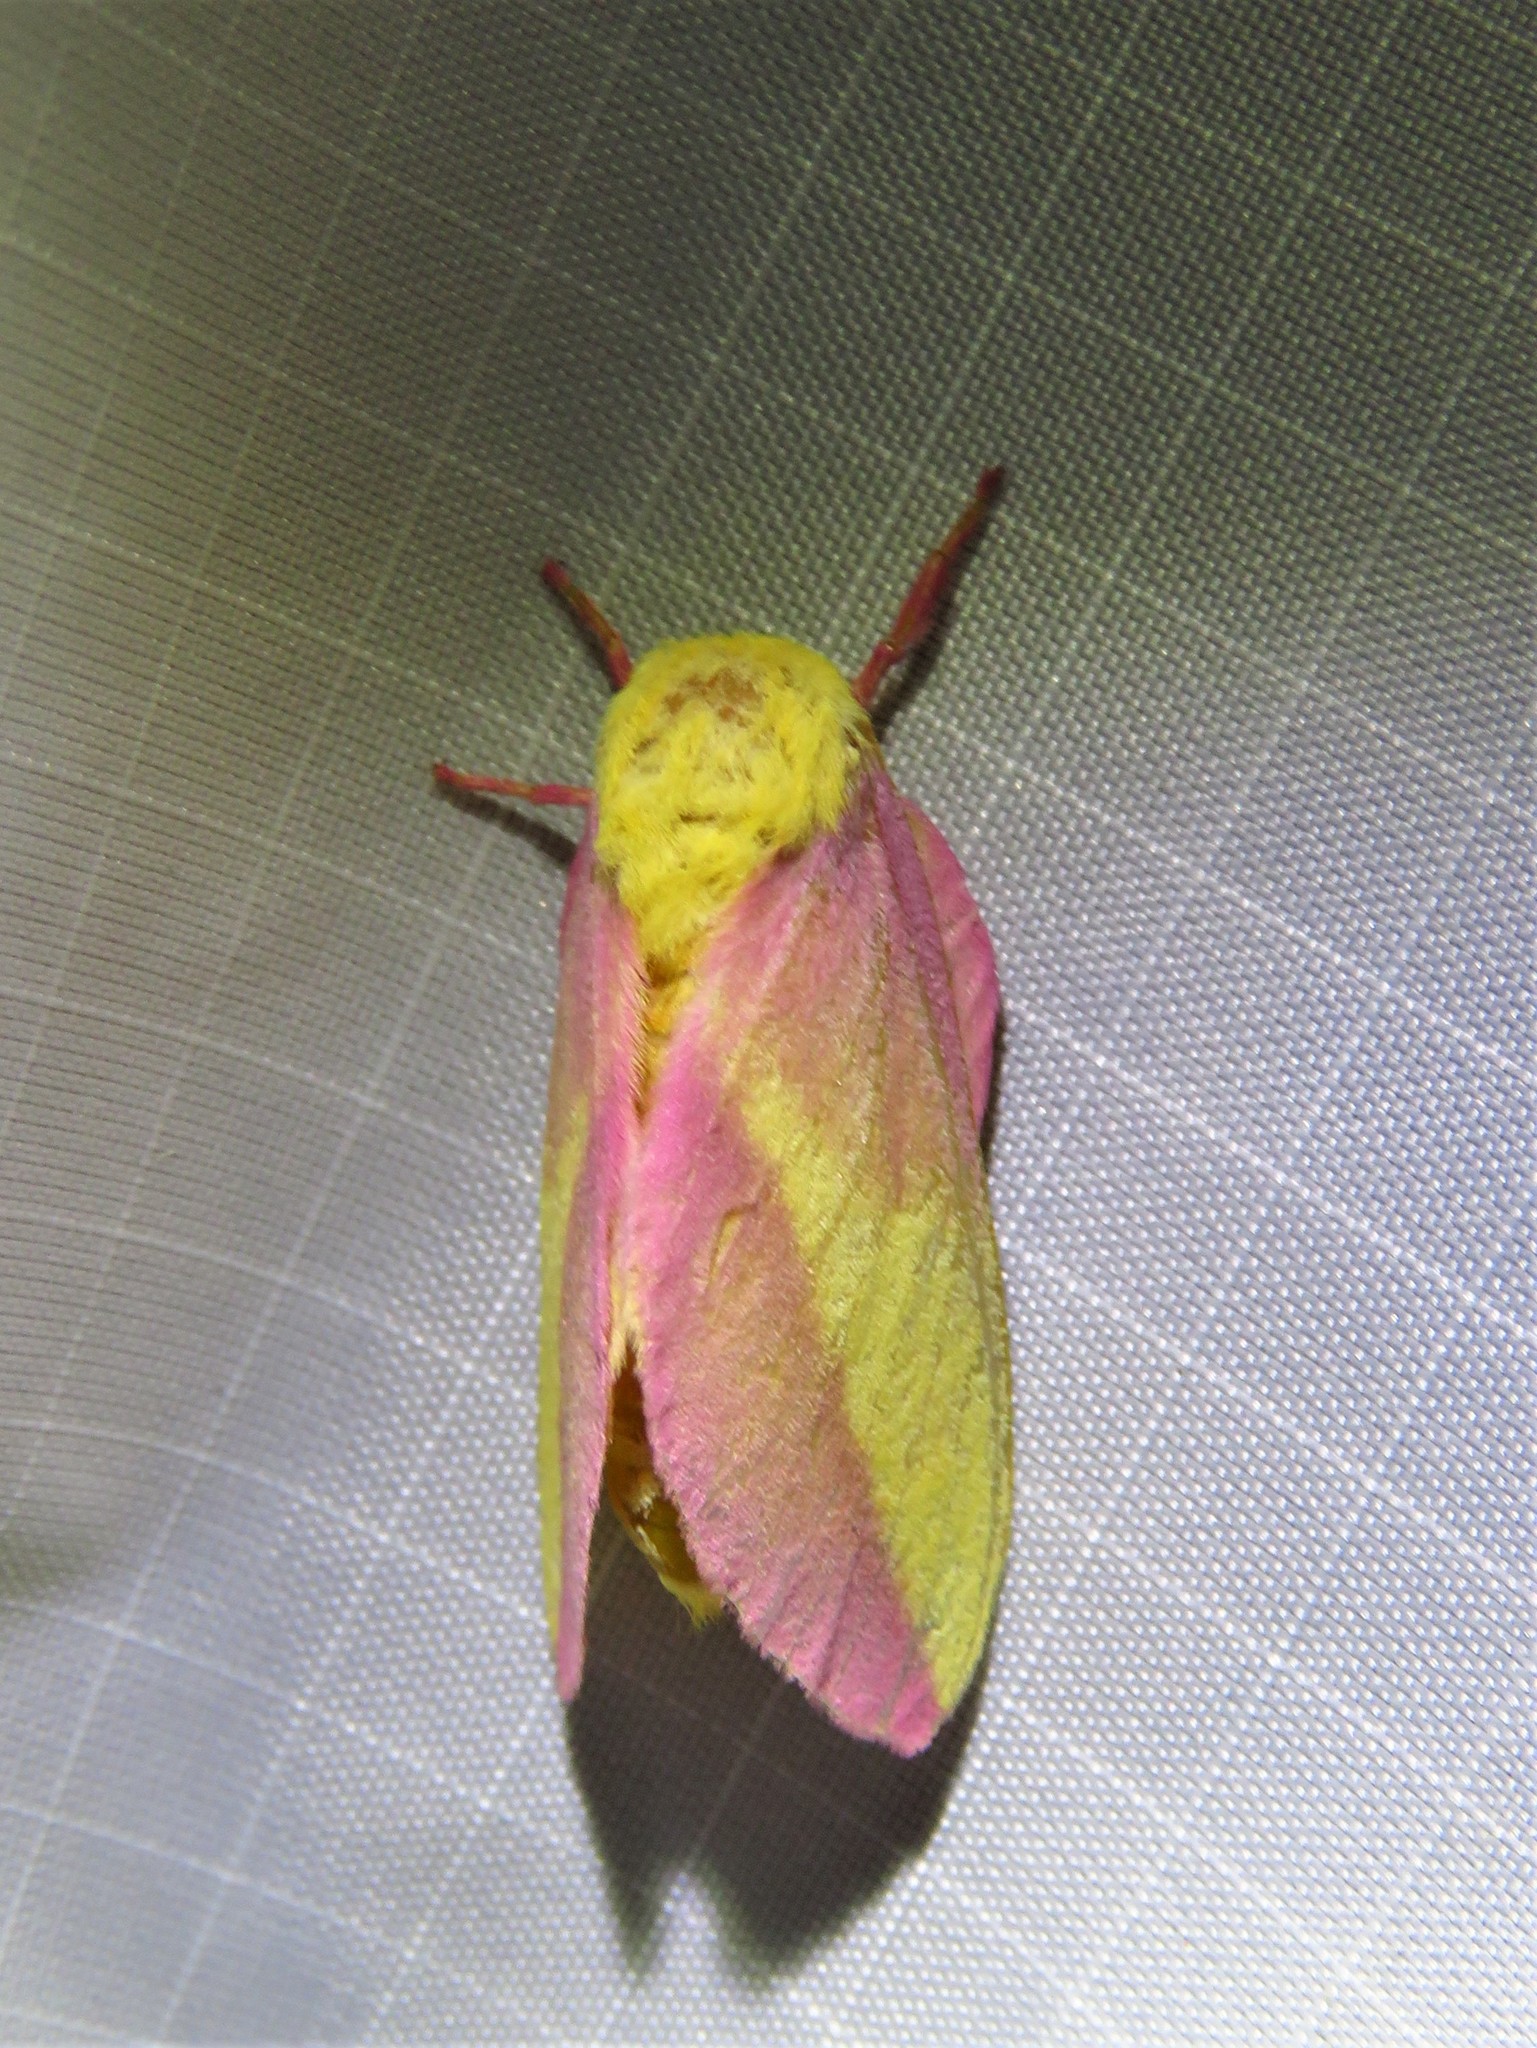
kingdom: Animalia
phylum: Arthropoda
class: Insecta
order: Lepidoptera
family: Saturniidae
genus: Dryocampa
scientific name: Dryocampa rubicunda
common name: Rosy maple moth
